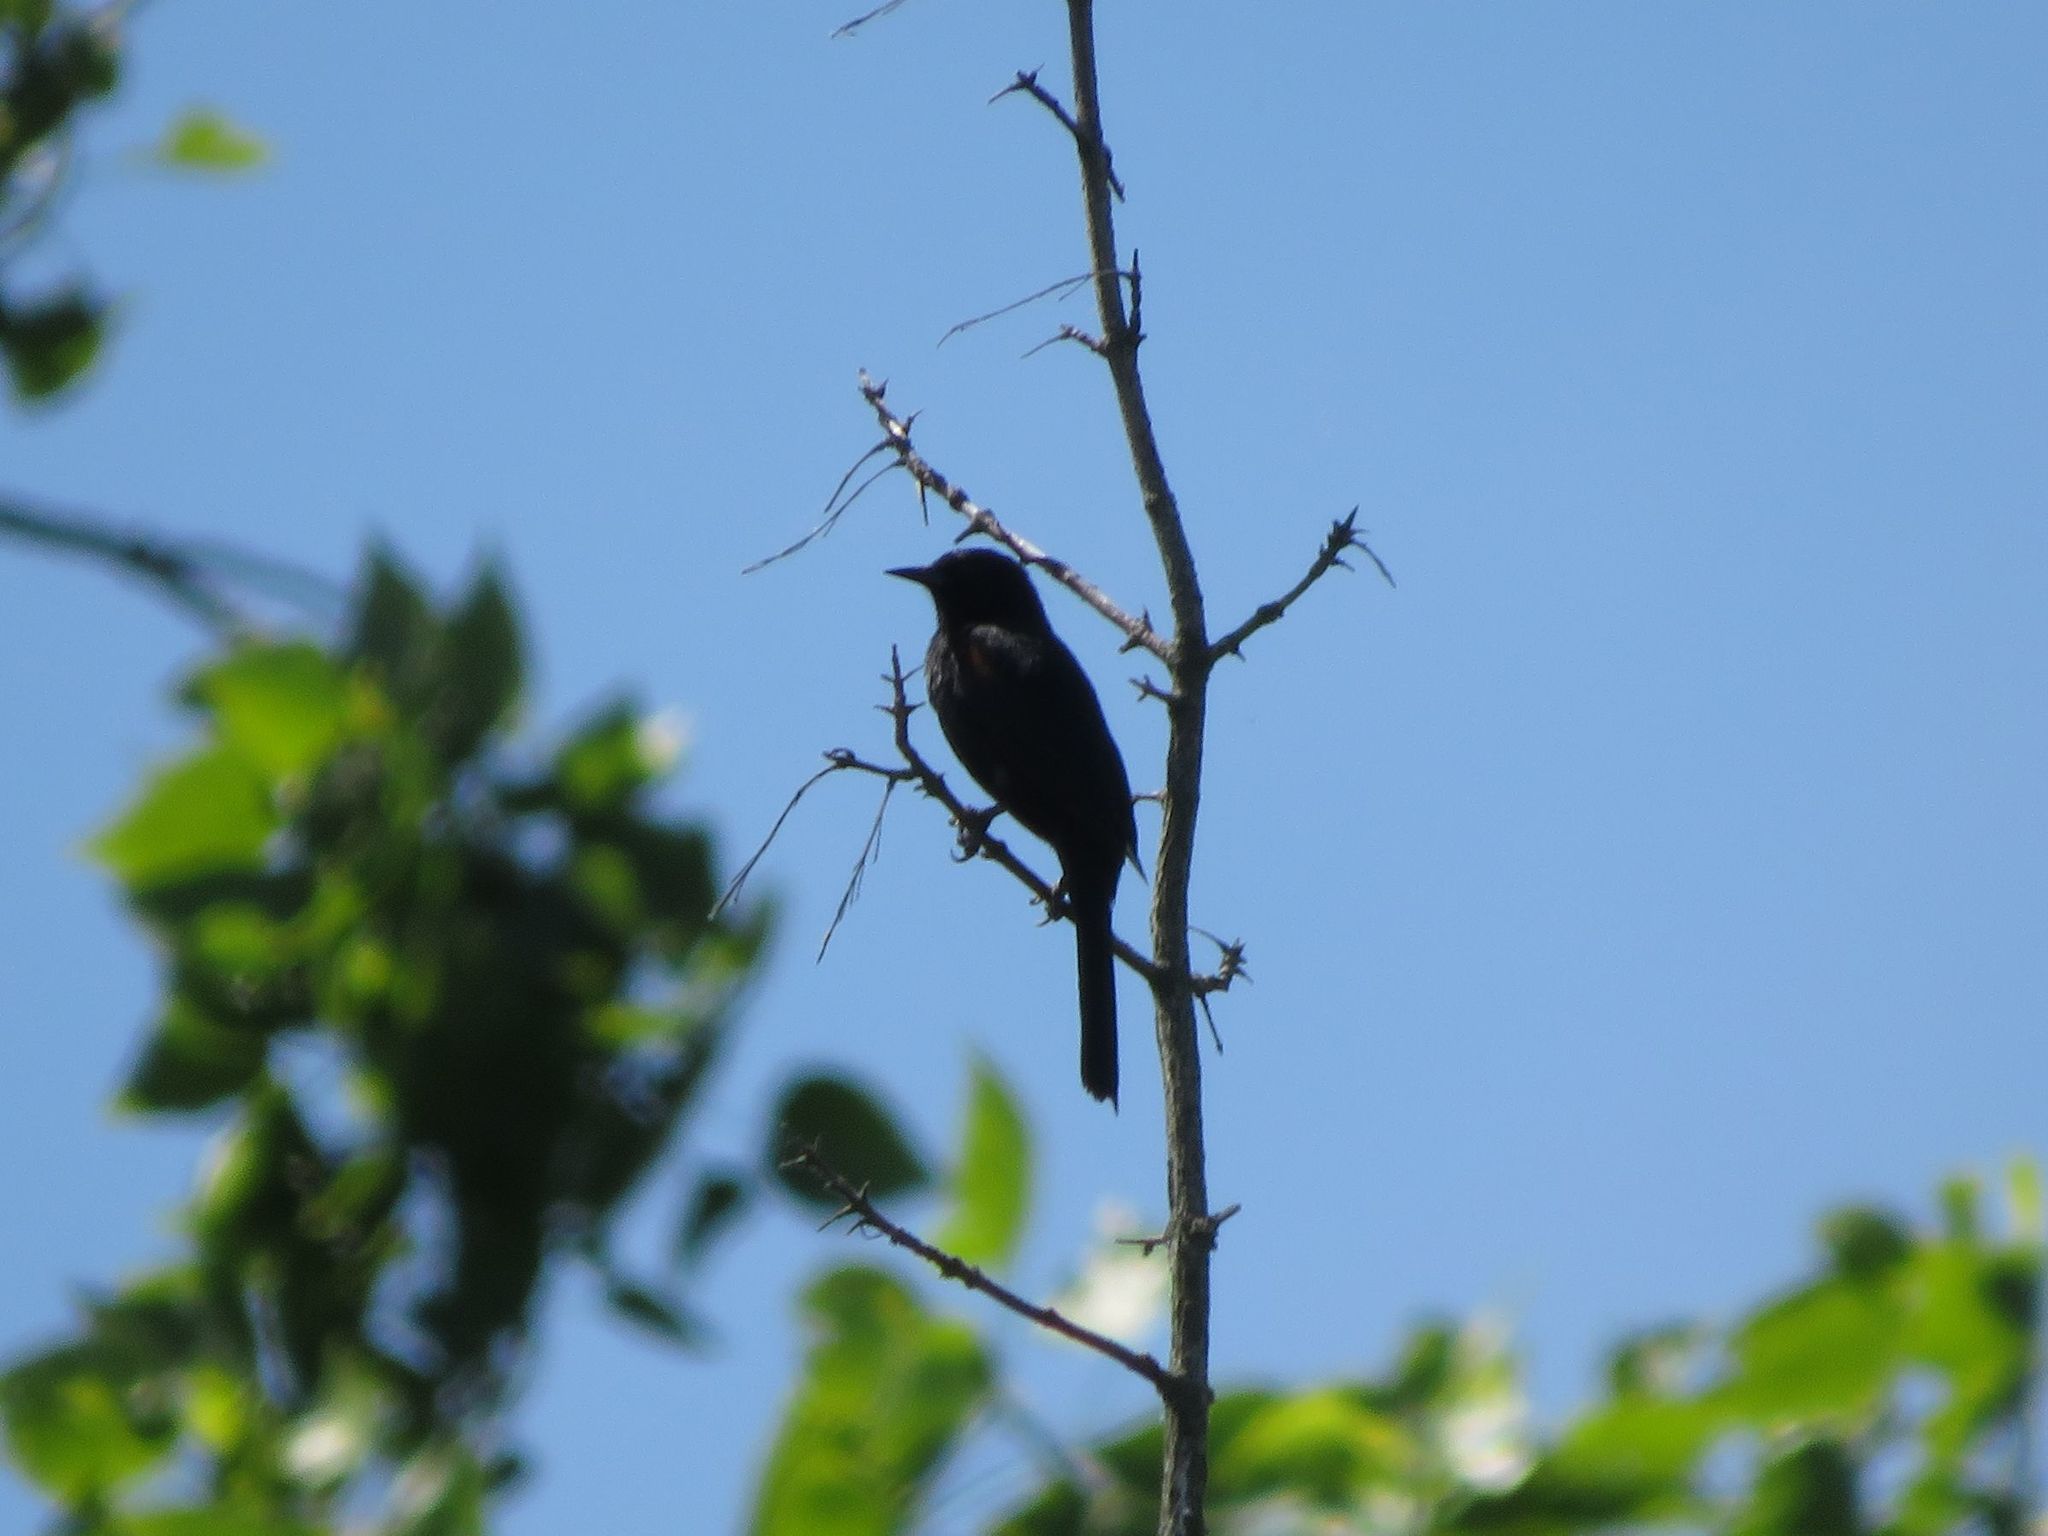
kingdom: Animalia
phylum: Chordata
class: Aves
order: Passeriformes
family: Icteridae
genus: Icterus
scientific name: Icterus cayanensis
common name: Epaulet oriole
